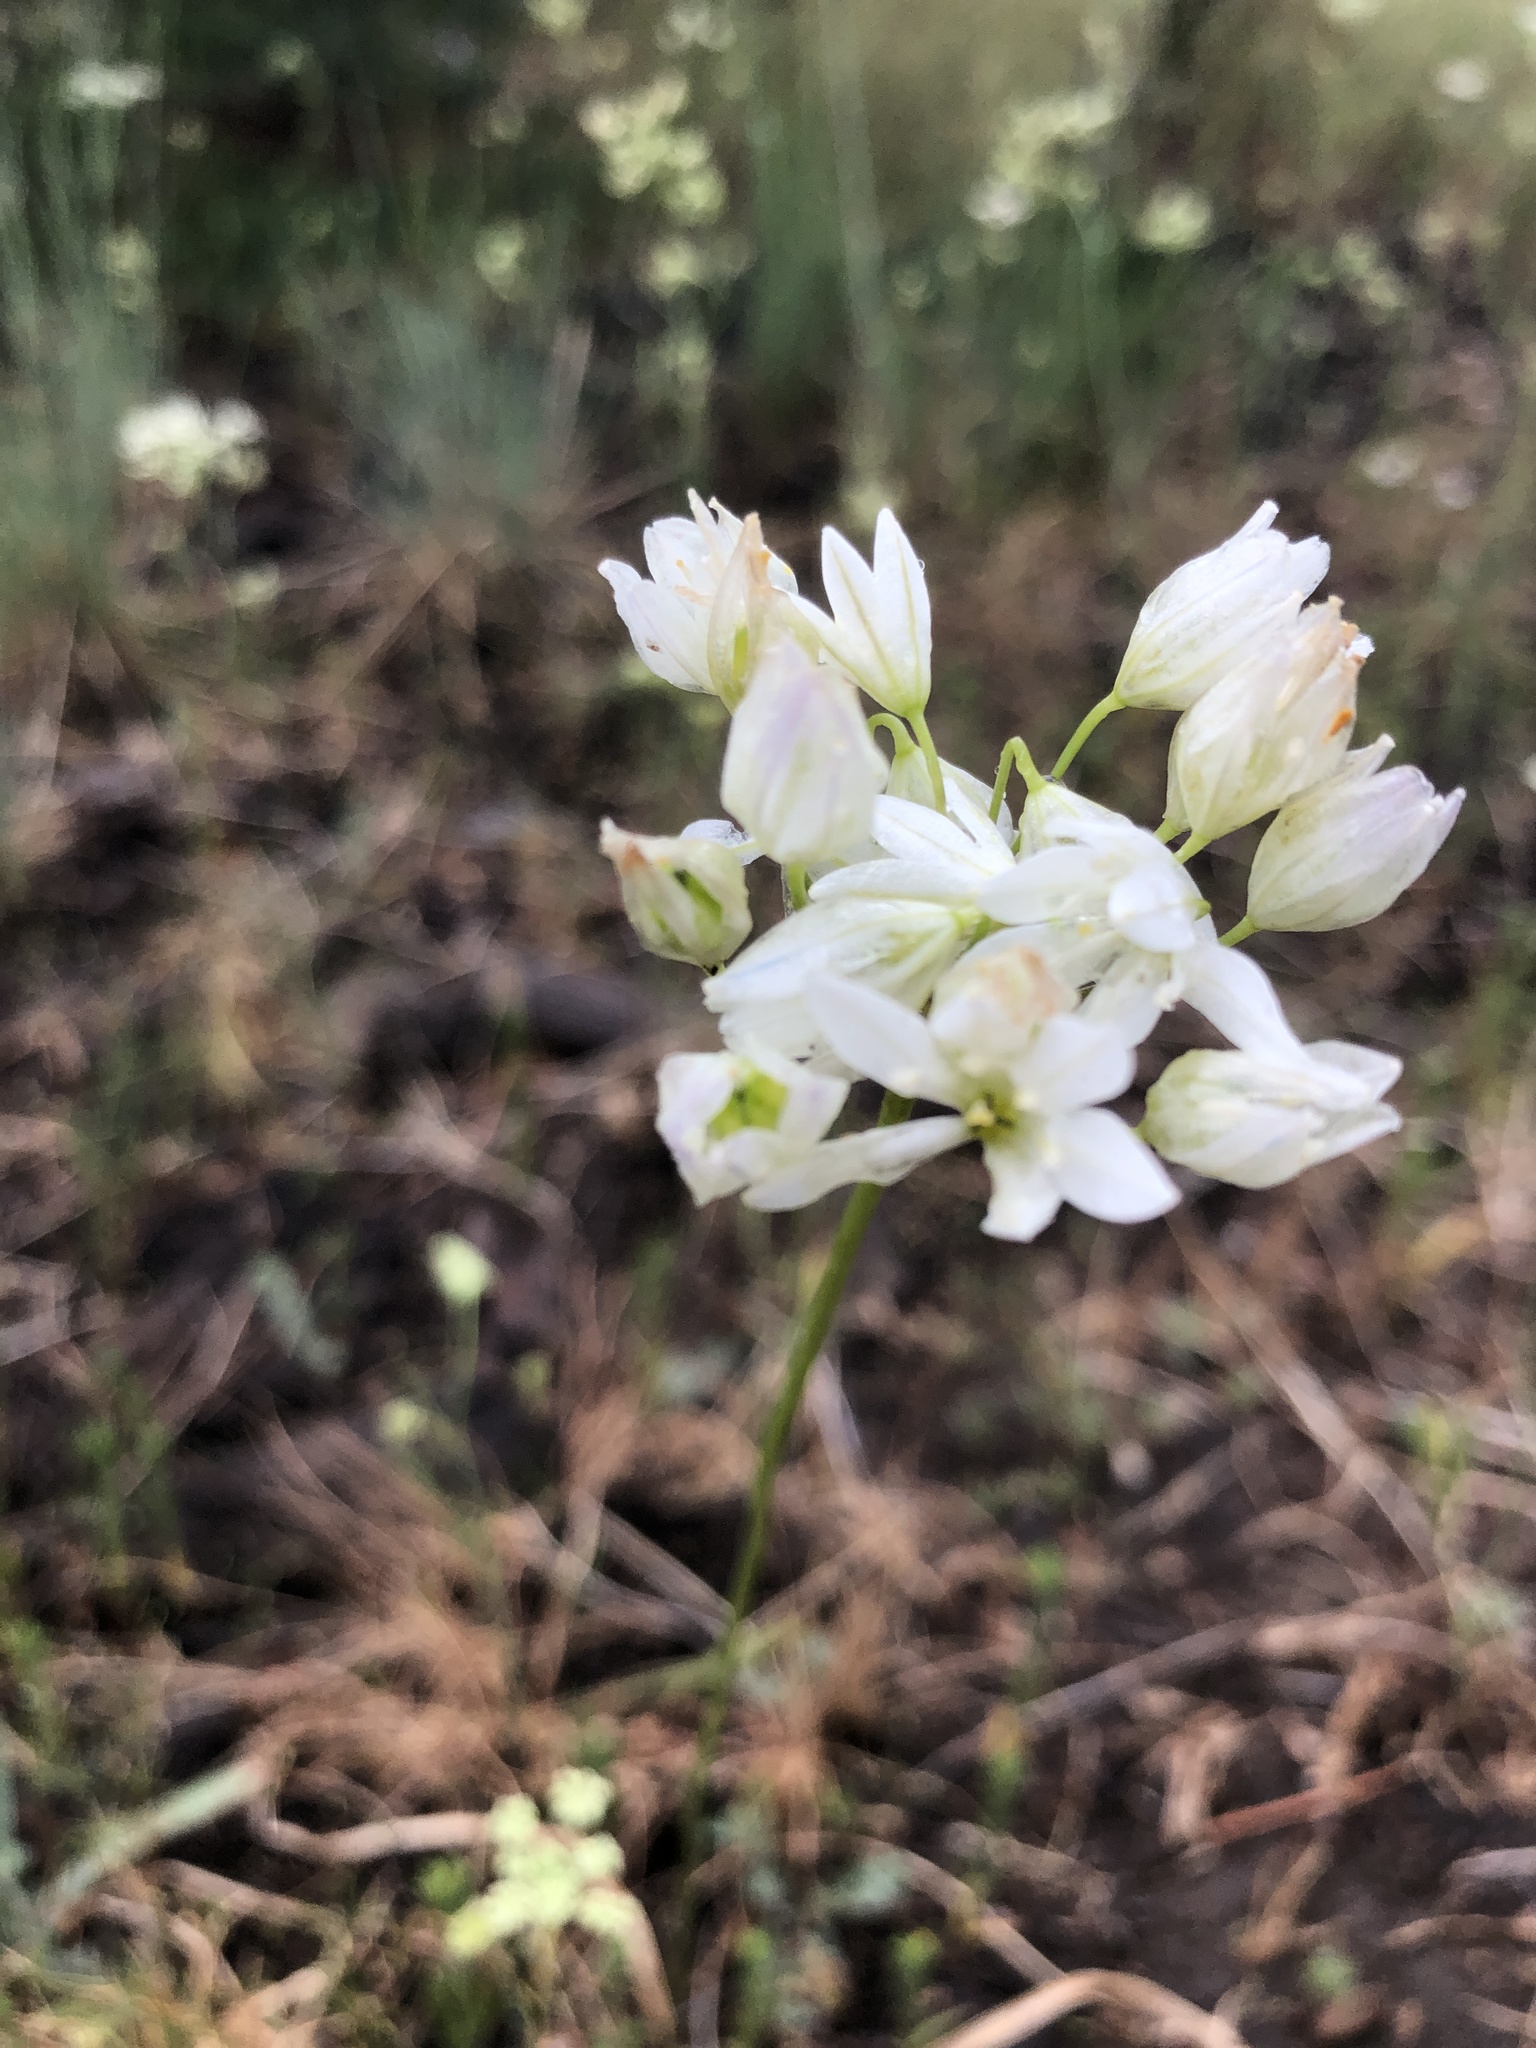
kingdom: Plantae
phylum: Tracheophyta
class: Liliopsida
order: Asparagales
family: Asparagaceae
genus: Triteleia
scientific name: Triteleia hyacinthina
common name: White brodiaea
